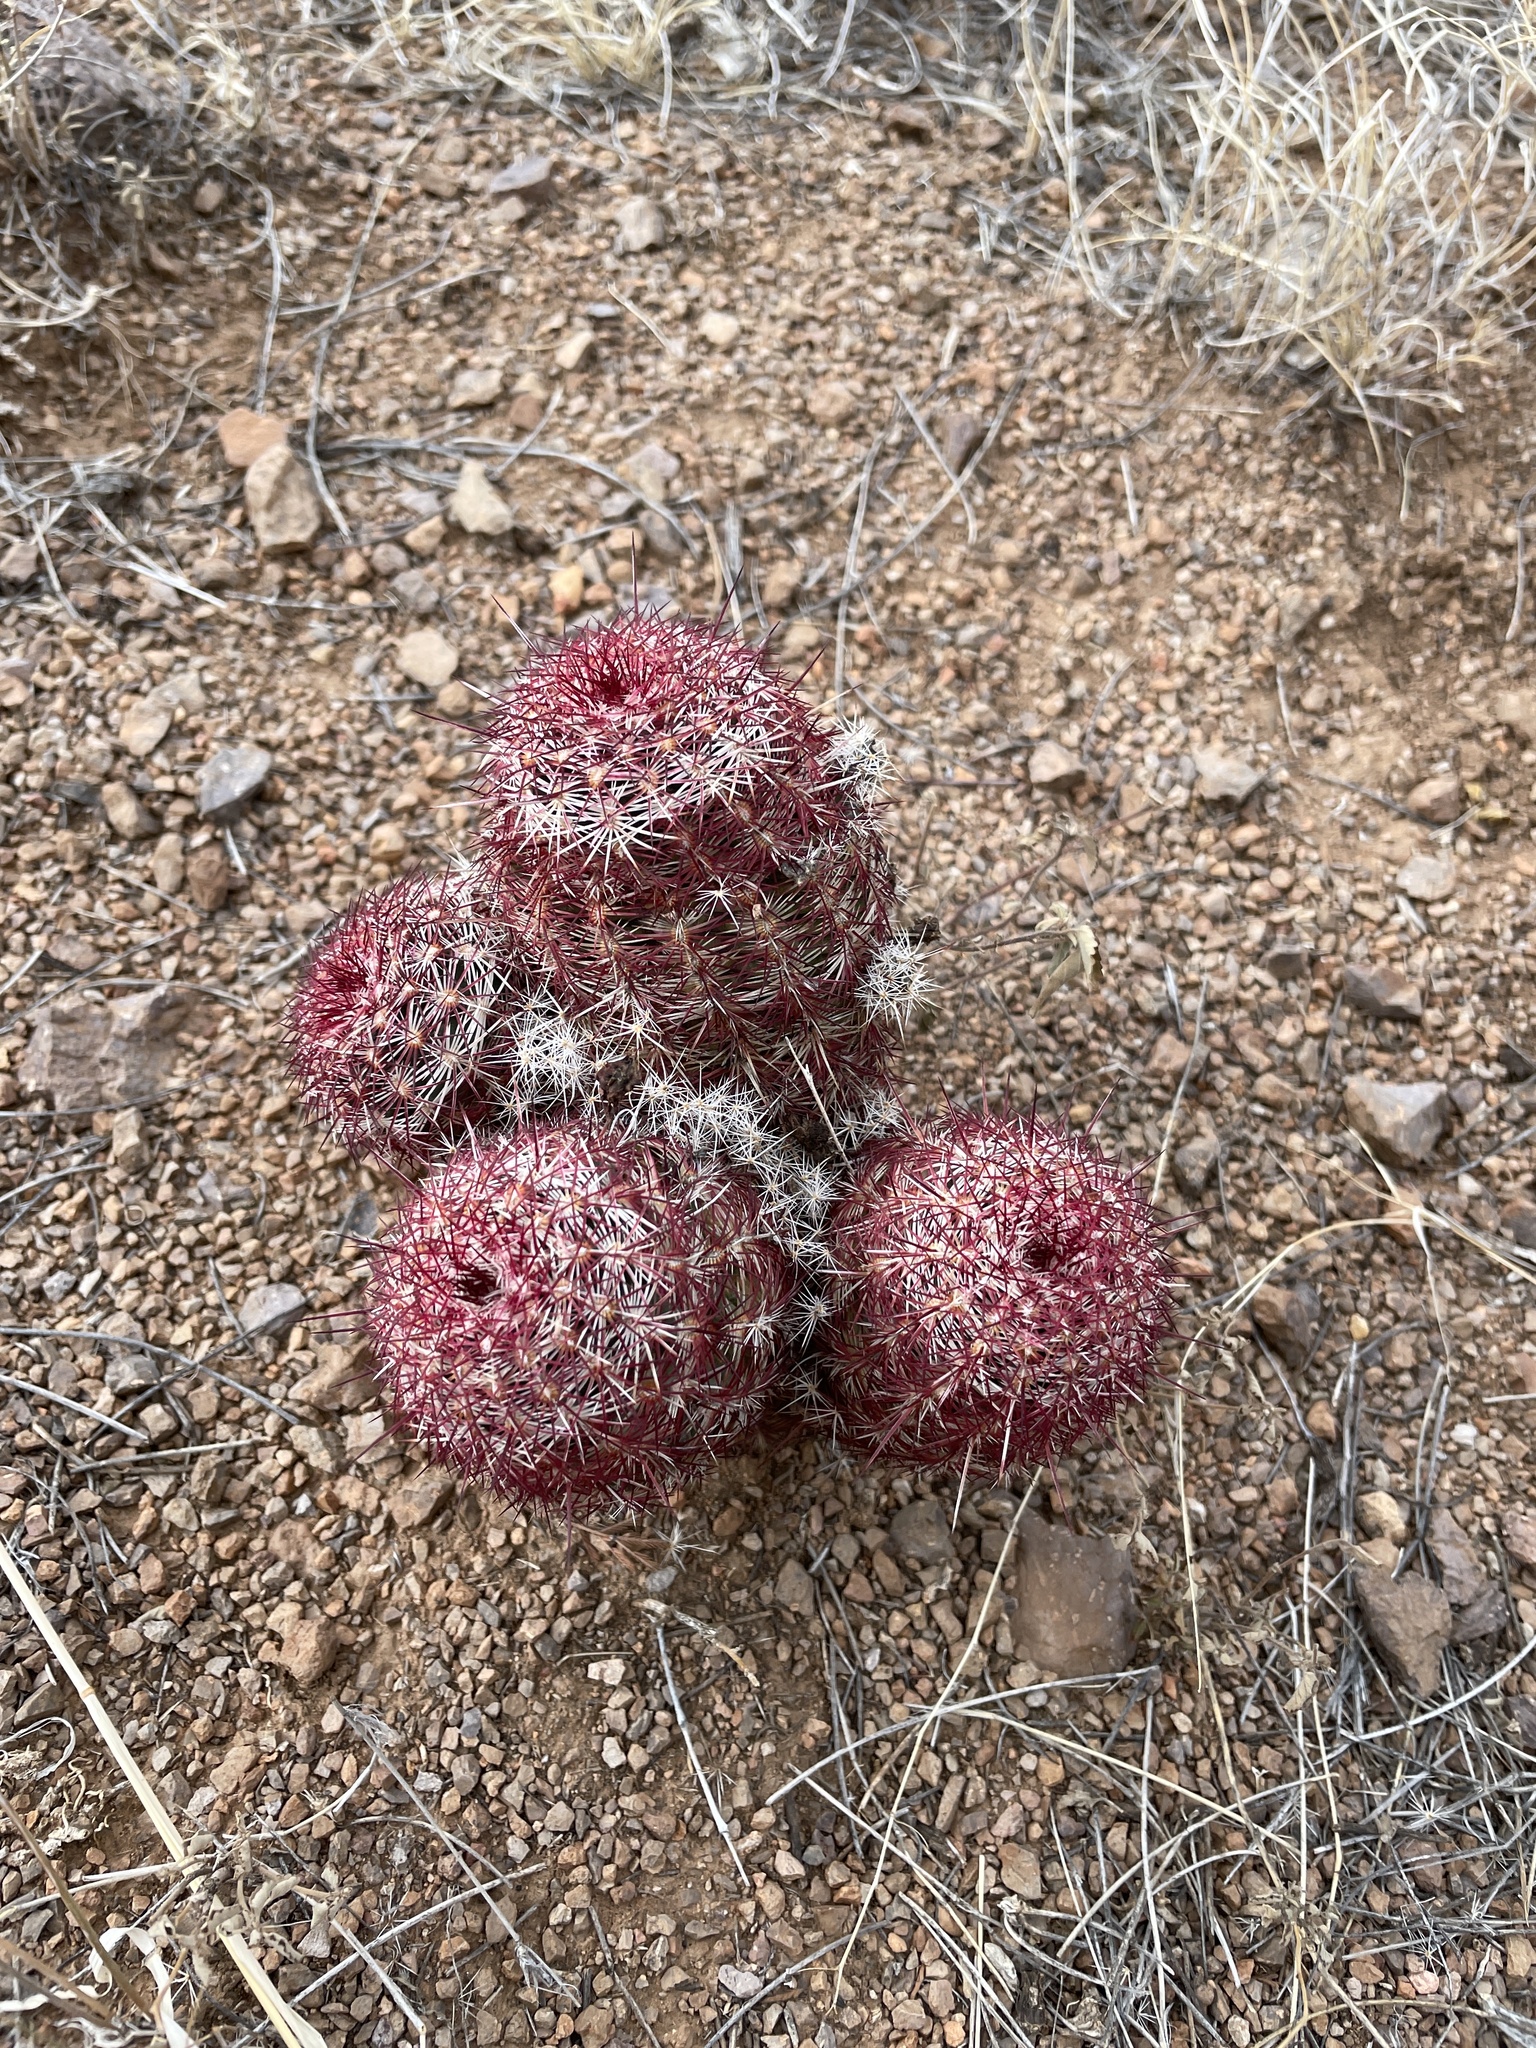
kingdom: Plantae
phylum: Tracheophyta
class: Magnoliopsida
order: Caryophyllales
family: Cactaceae
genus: Echinocereus
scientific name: Echinocereus viridiflorus
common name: Nylon hedgehog cactus
